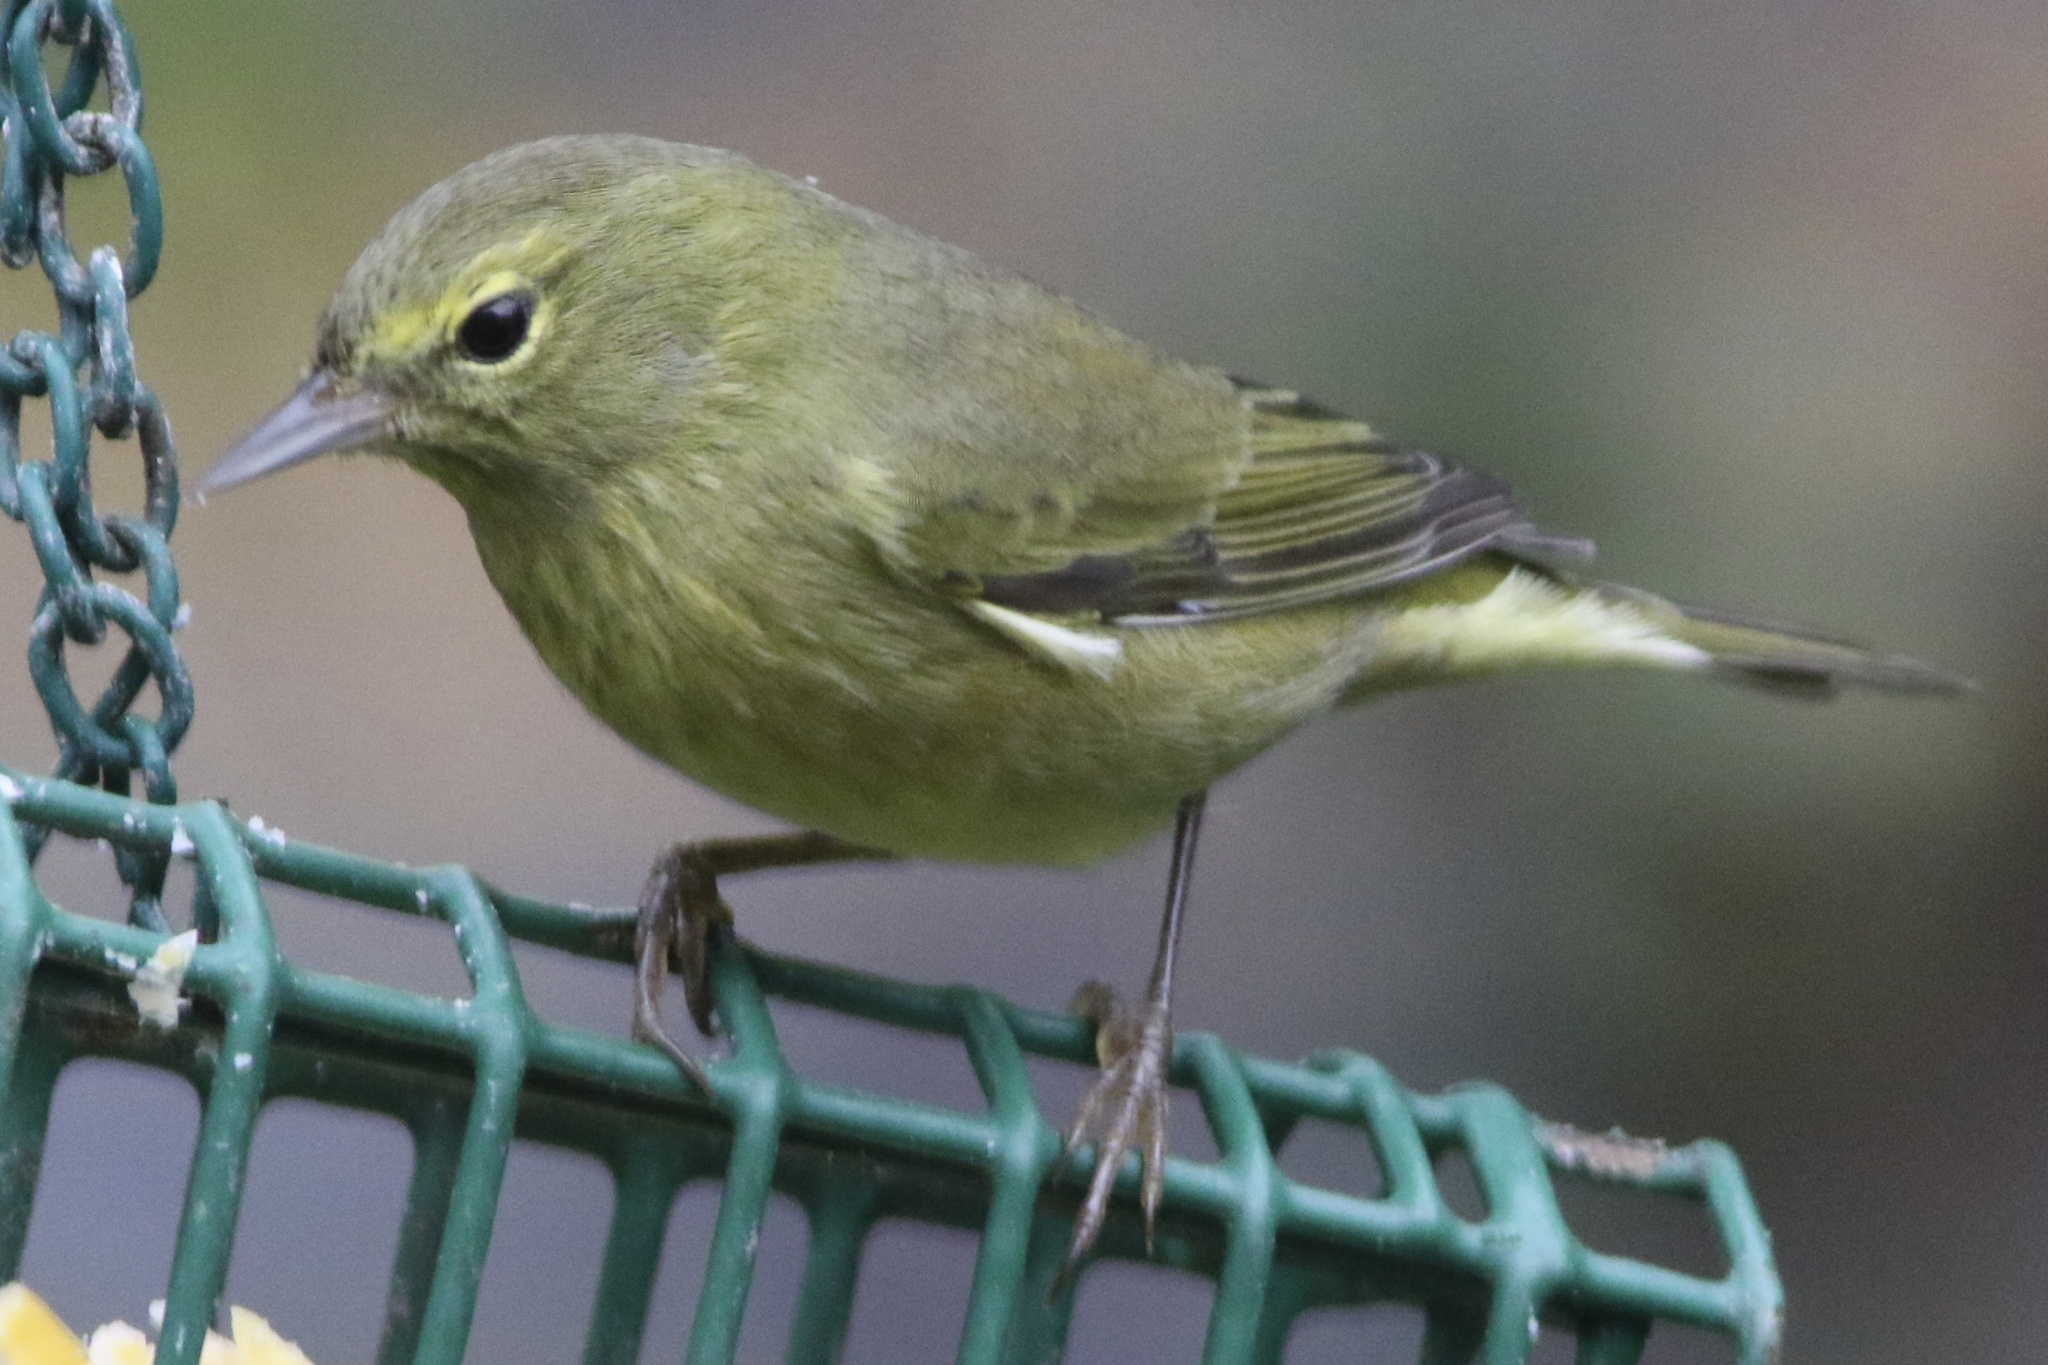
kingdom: Animalia
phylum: Chordata
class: Aves
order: Passeriformes
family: Parulidae
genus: Leiothlypis
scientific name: Leiothlypis celata
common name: Orange-crowned warbler
